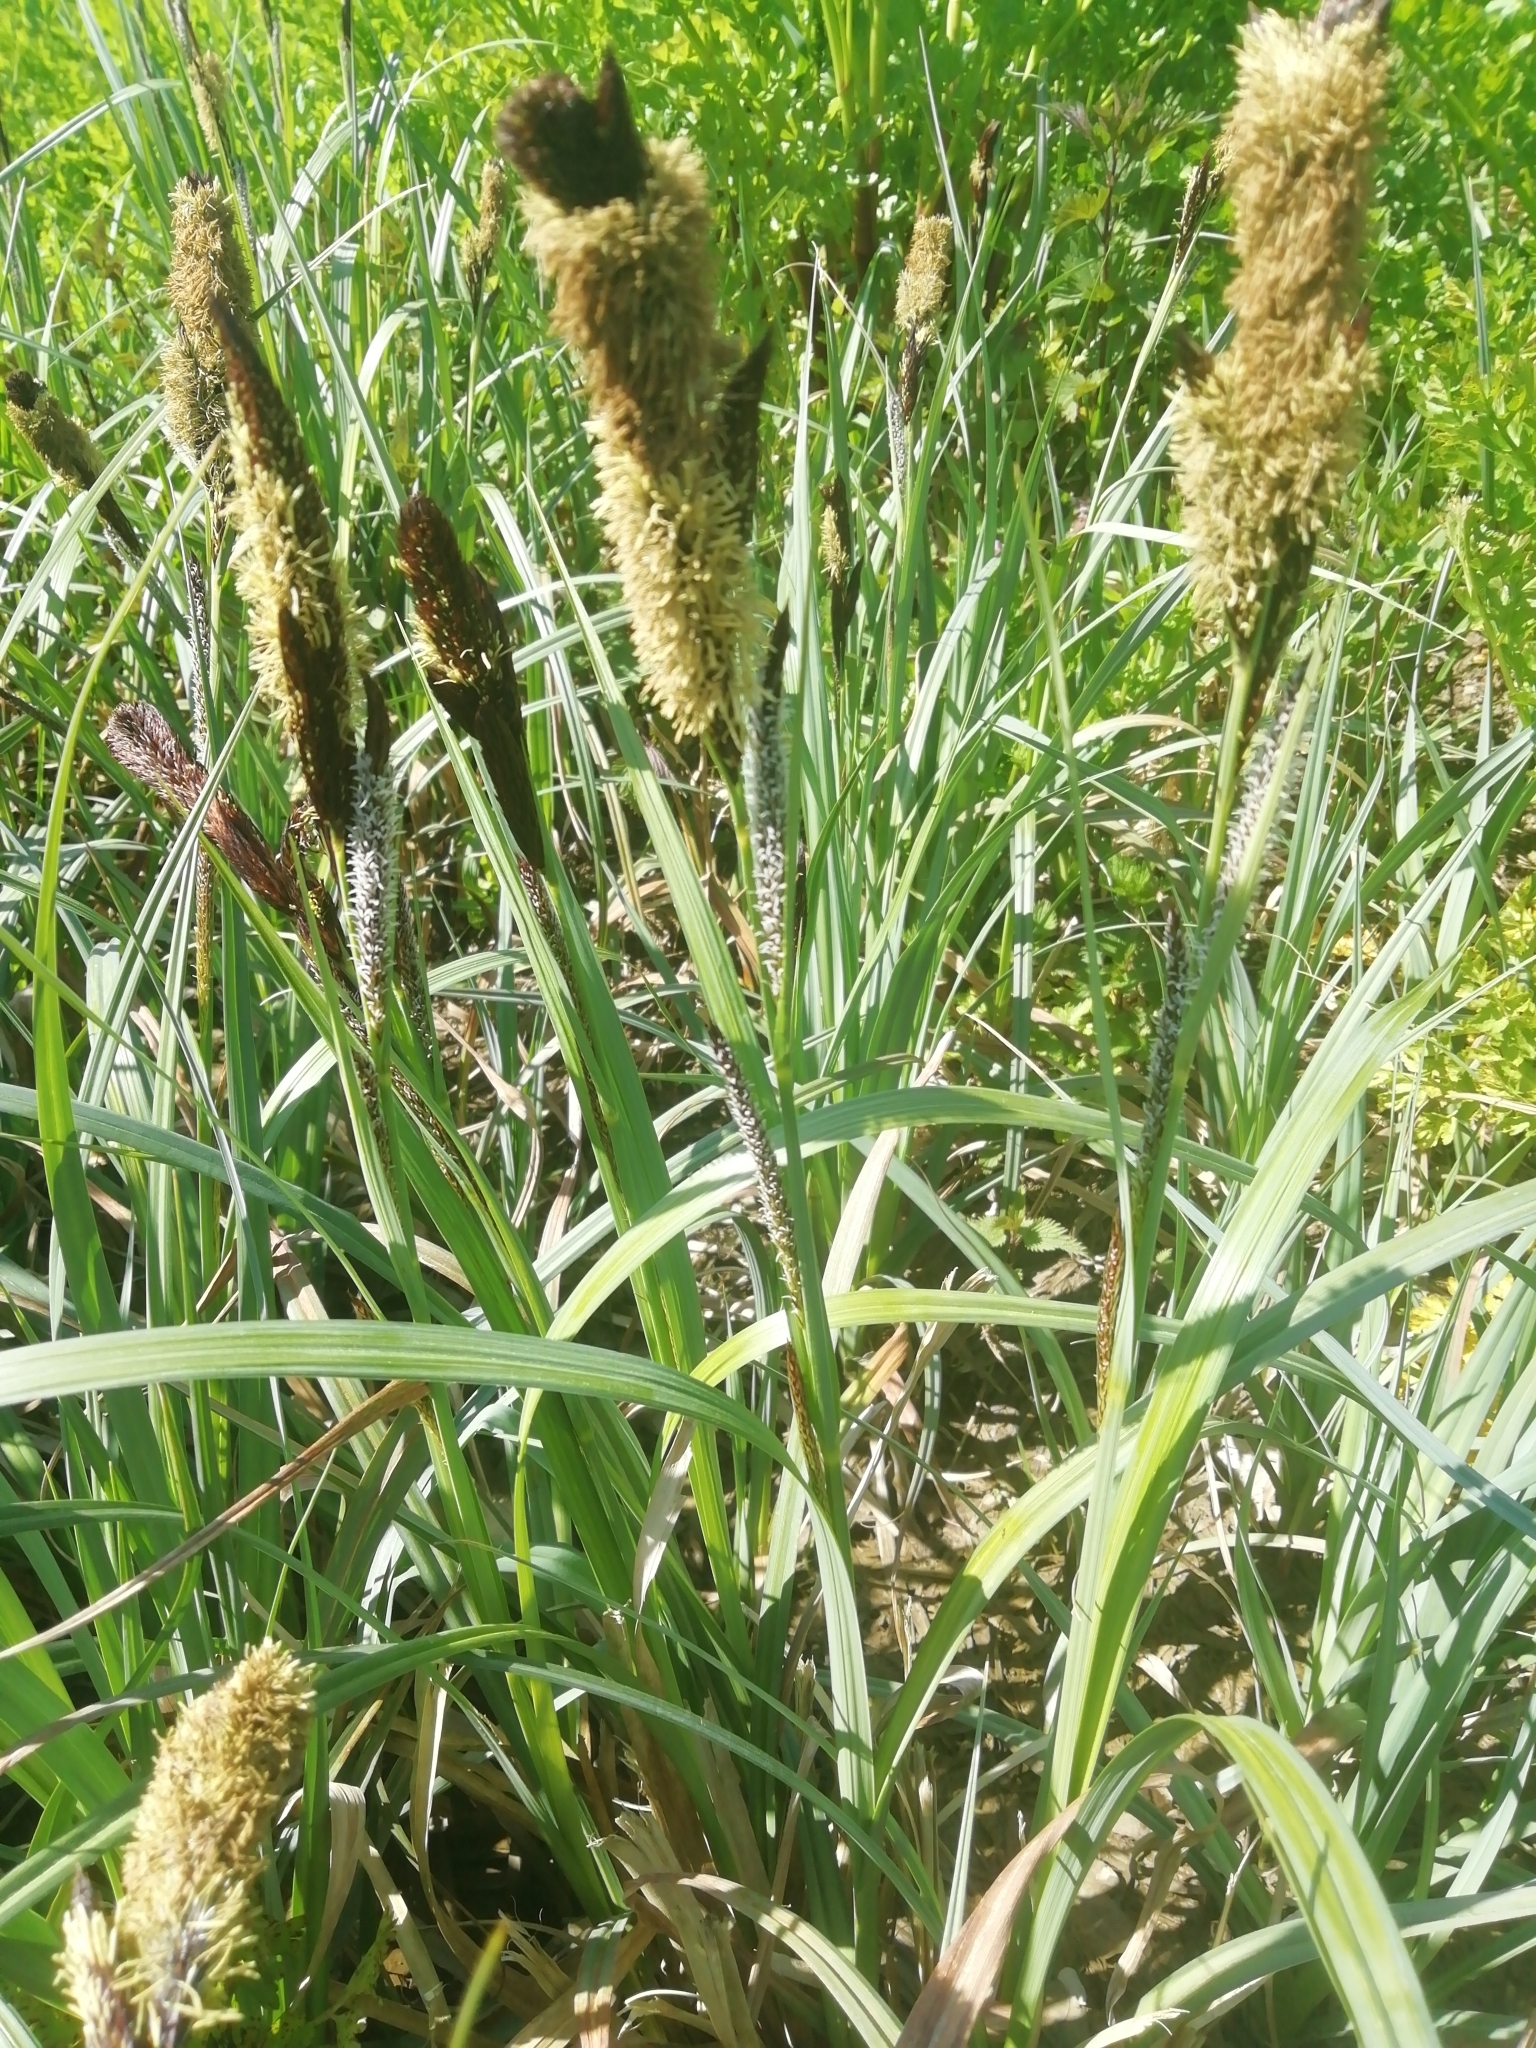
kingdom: Plantae
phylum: Tracheophyta
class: Liliopsida
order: Poales
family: Cyperaceae
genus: Carex
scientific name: Carex riparia
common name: Greater pond-sedge
